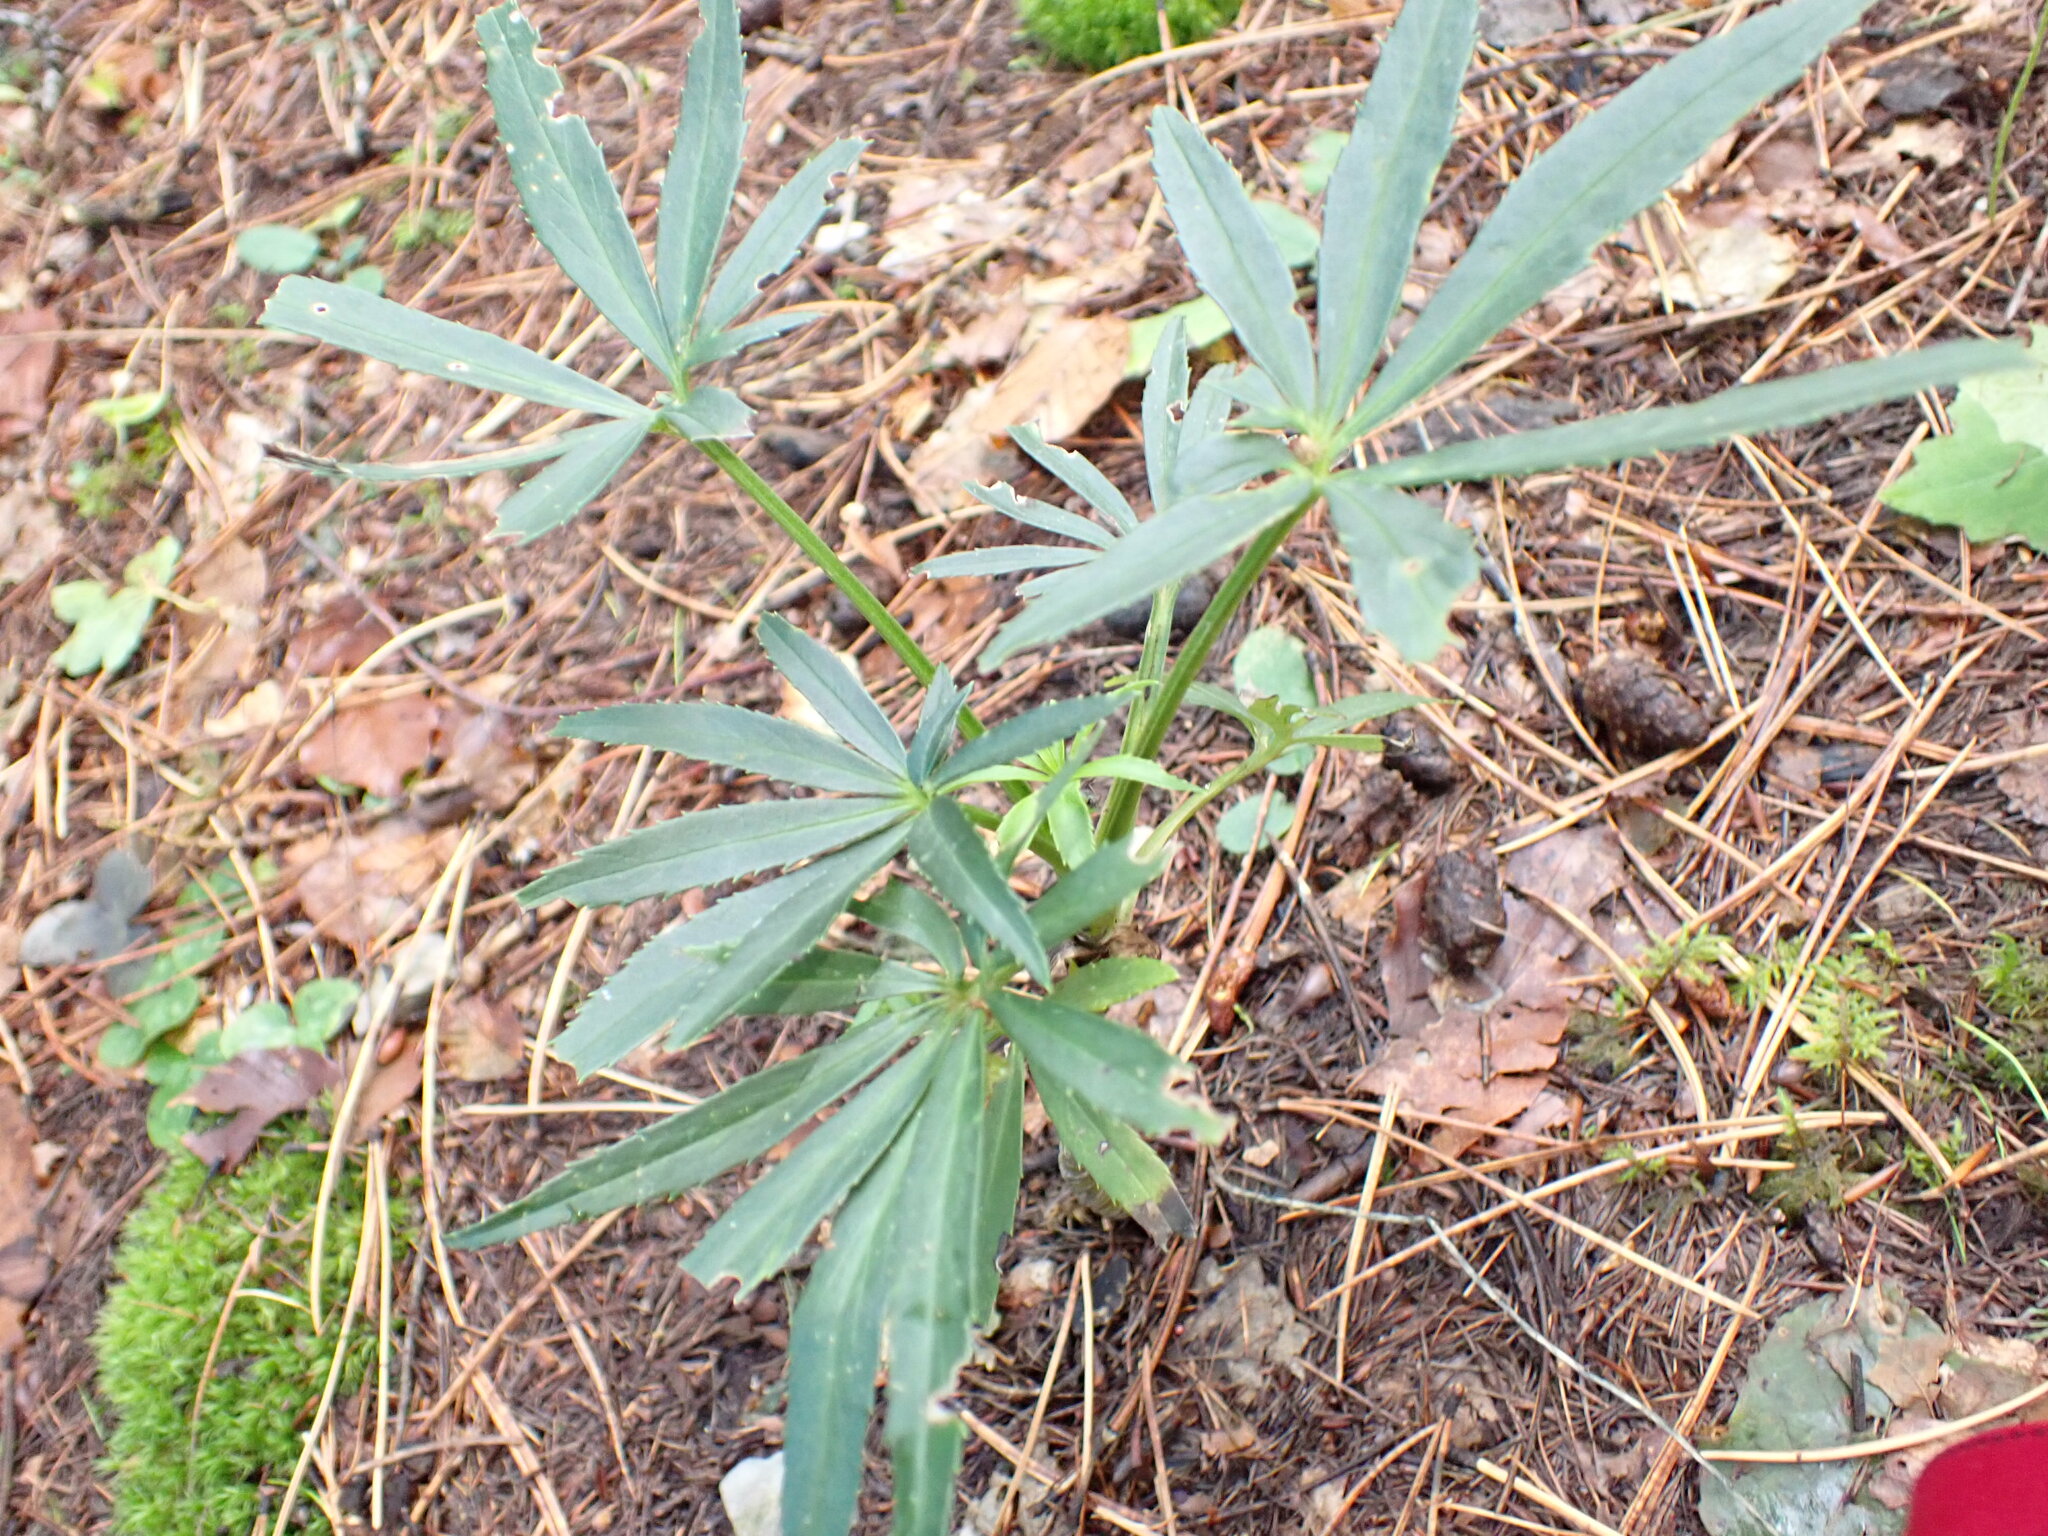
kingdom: Plantae
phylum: Tracheophyta
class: Magnoliopsida
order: Ranunculales
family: Ranunculaceae
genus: Helleborus
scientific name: Helleborus foetidus
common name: Stinking hellebore
